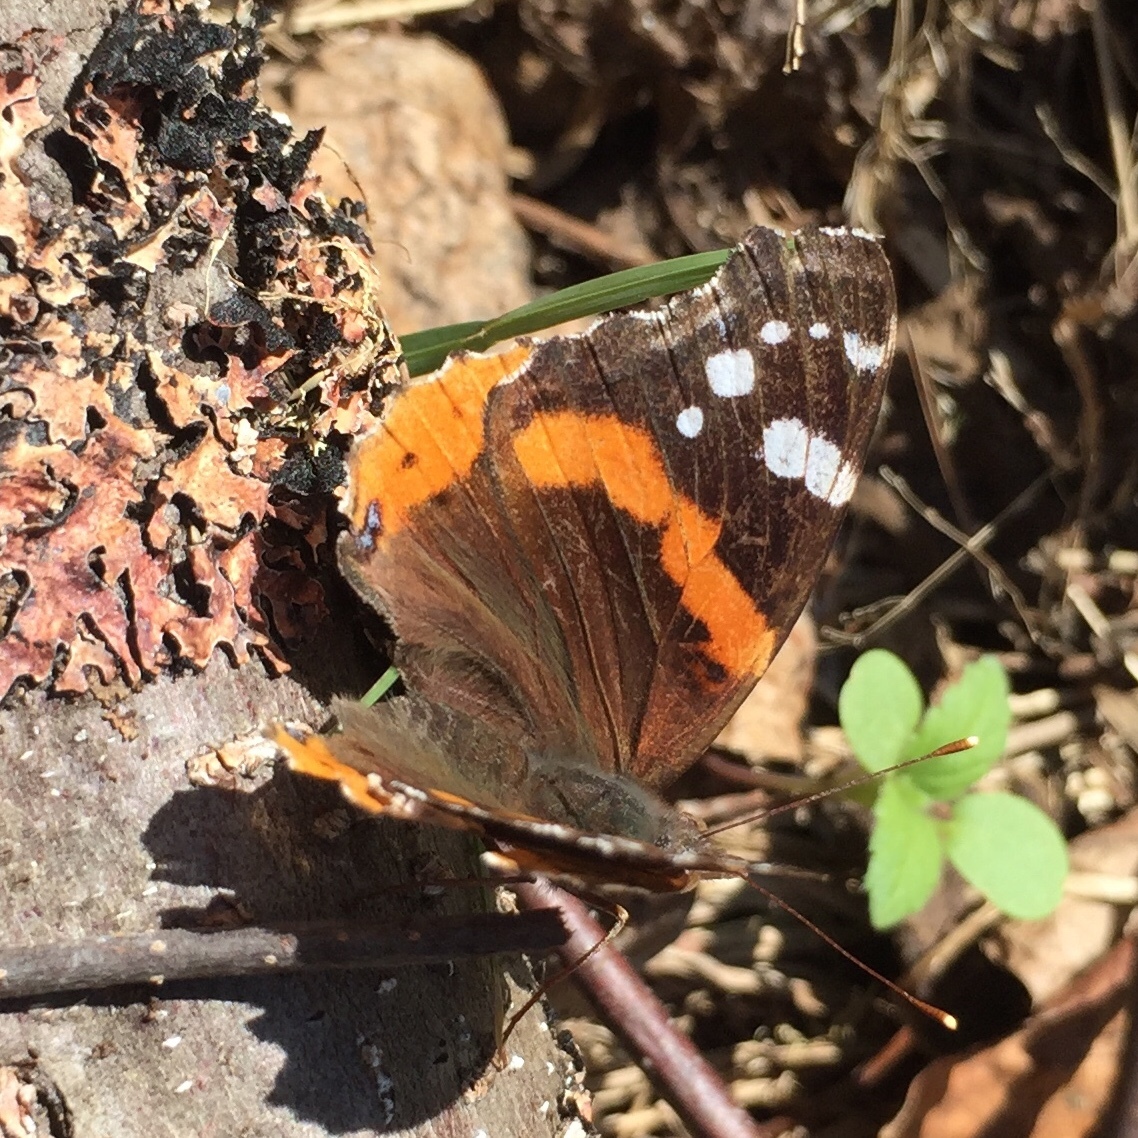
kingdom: Animalia
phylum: Arthropoda
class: Insecta
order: Lepidoptera
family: Nymphalidae
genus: Vanessa
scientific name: Vanessa atalanta
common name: Red admiral
